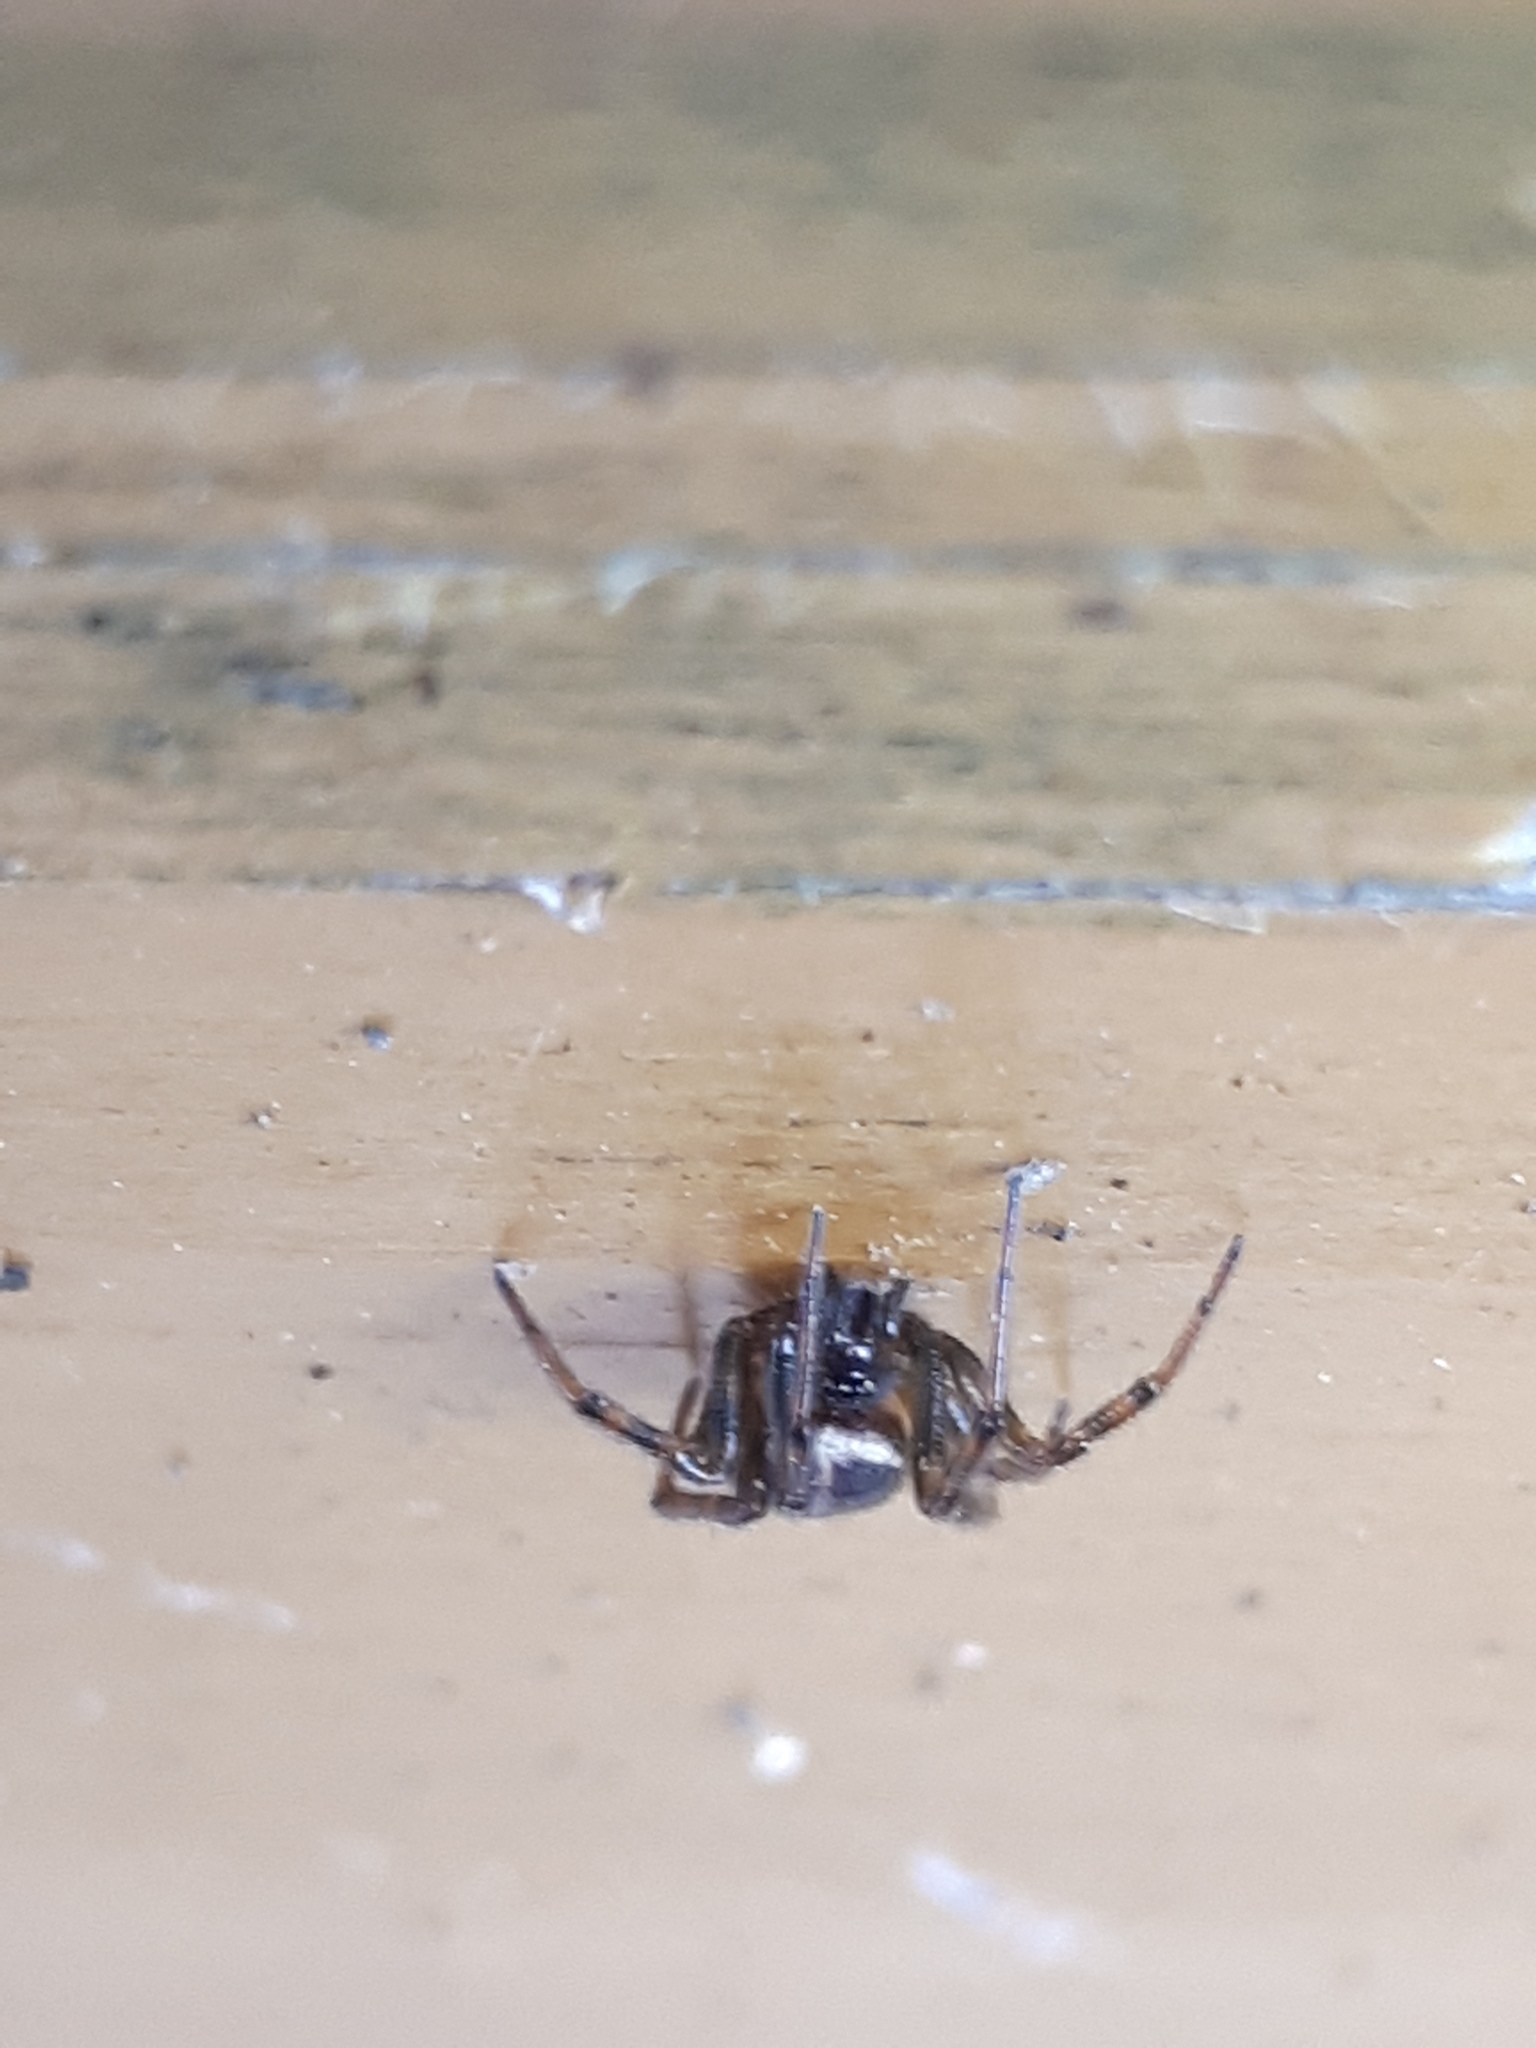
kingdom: Animalia
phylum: Arthropoda
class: Arachnida
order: Araneae
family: Theridiidae
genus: Steatoda
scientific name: Steatoda bipunctata
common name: False widow
